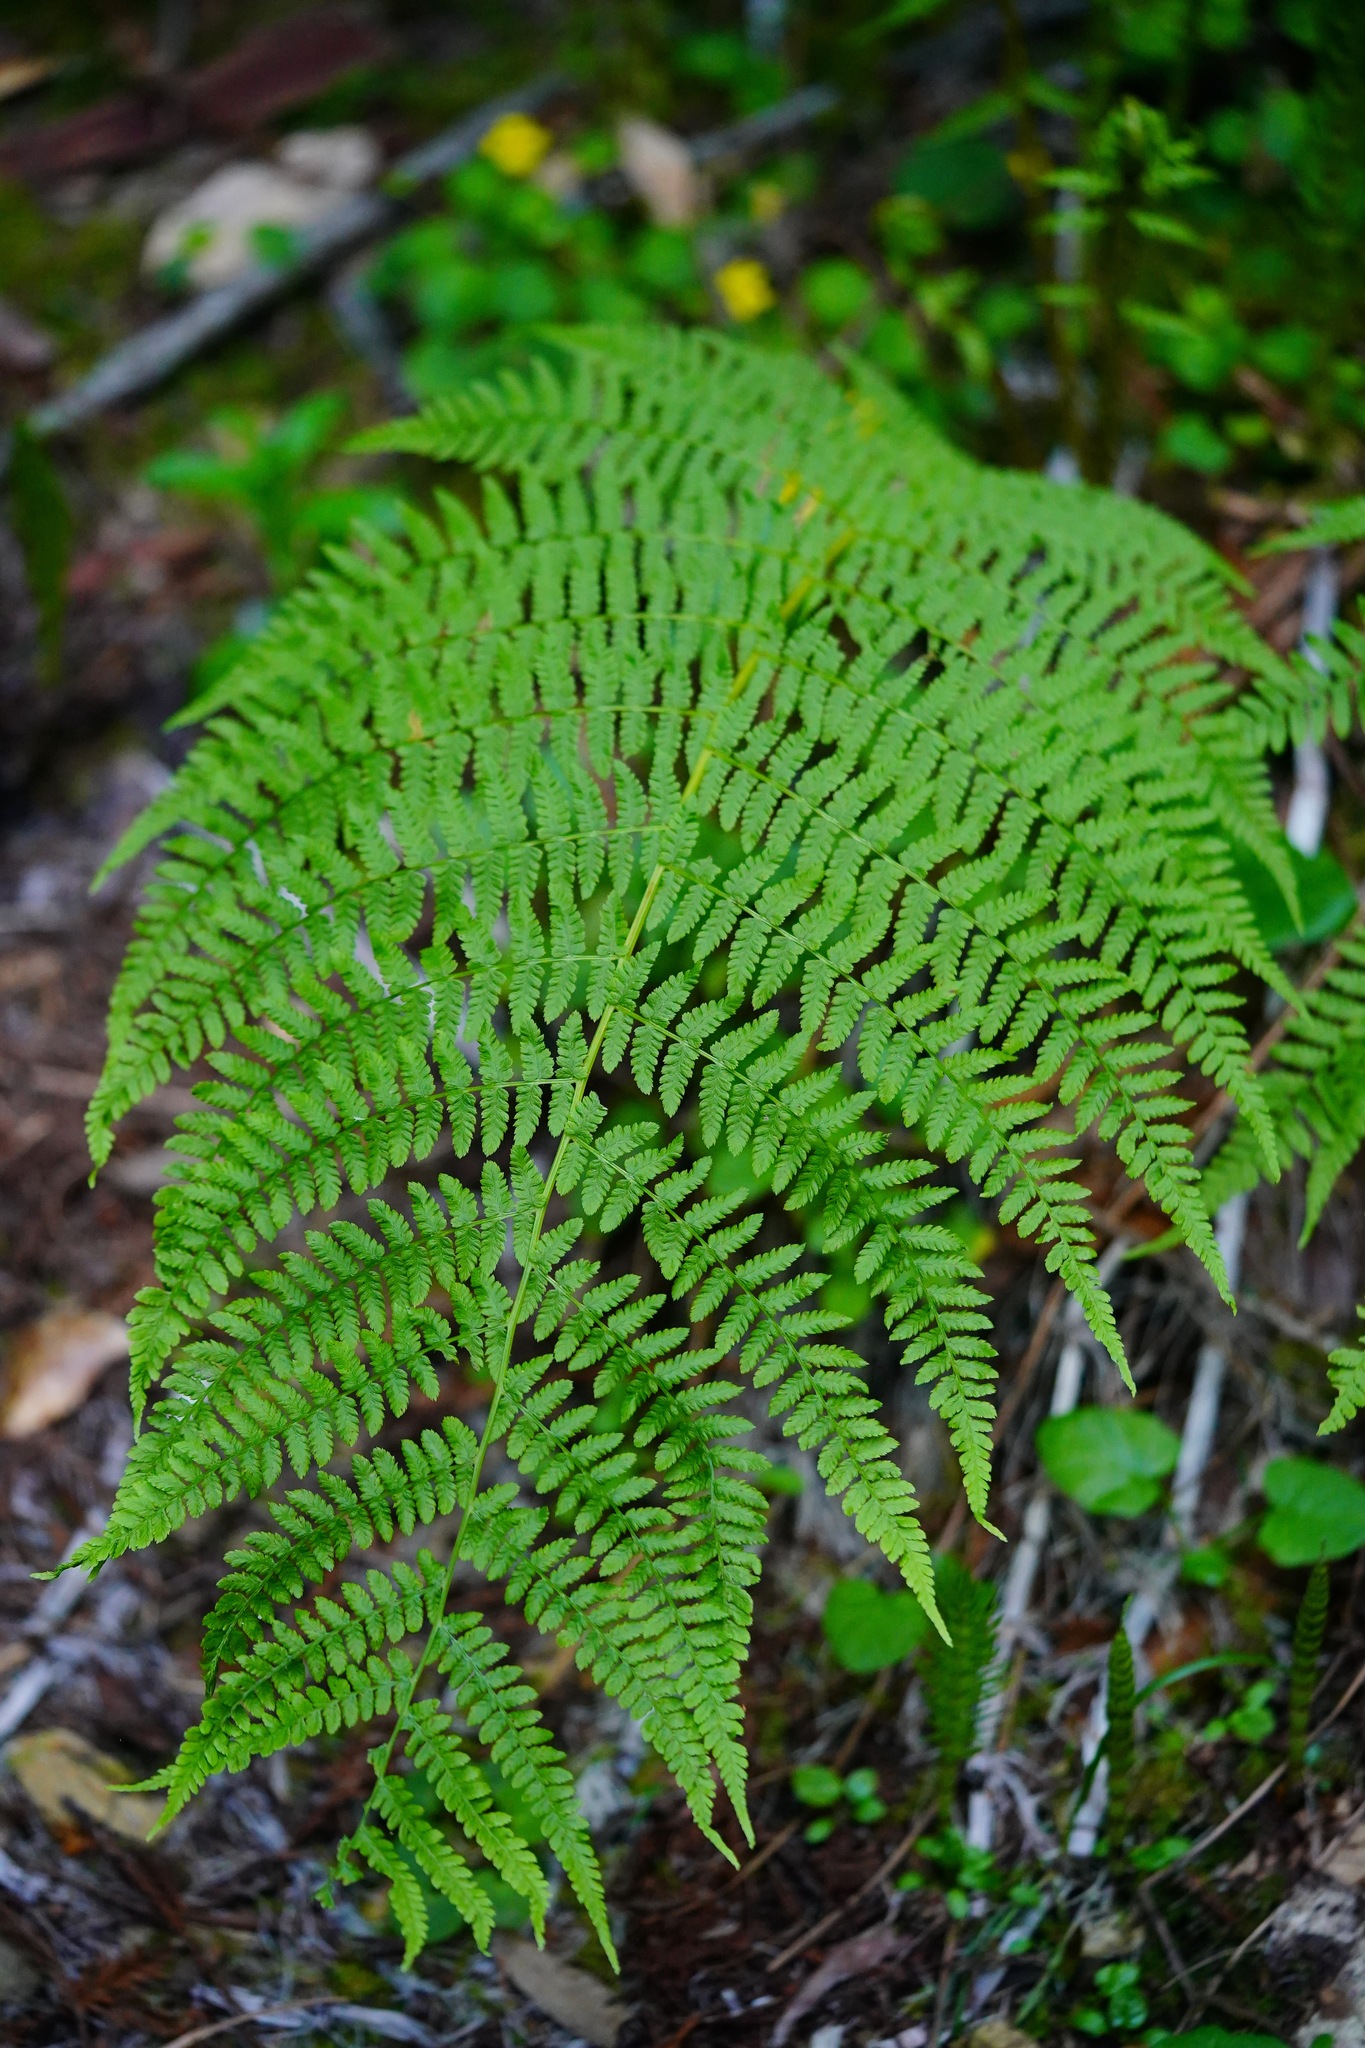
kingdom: Plantae
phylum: Tracheophyta
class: Polypodiopsida
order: Polypodiales
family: Athyriaceae
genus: Athyrium
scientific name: Athyrium filix-femina
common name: Lady fern
